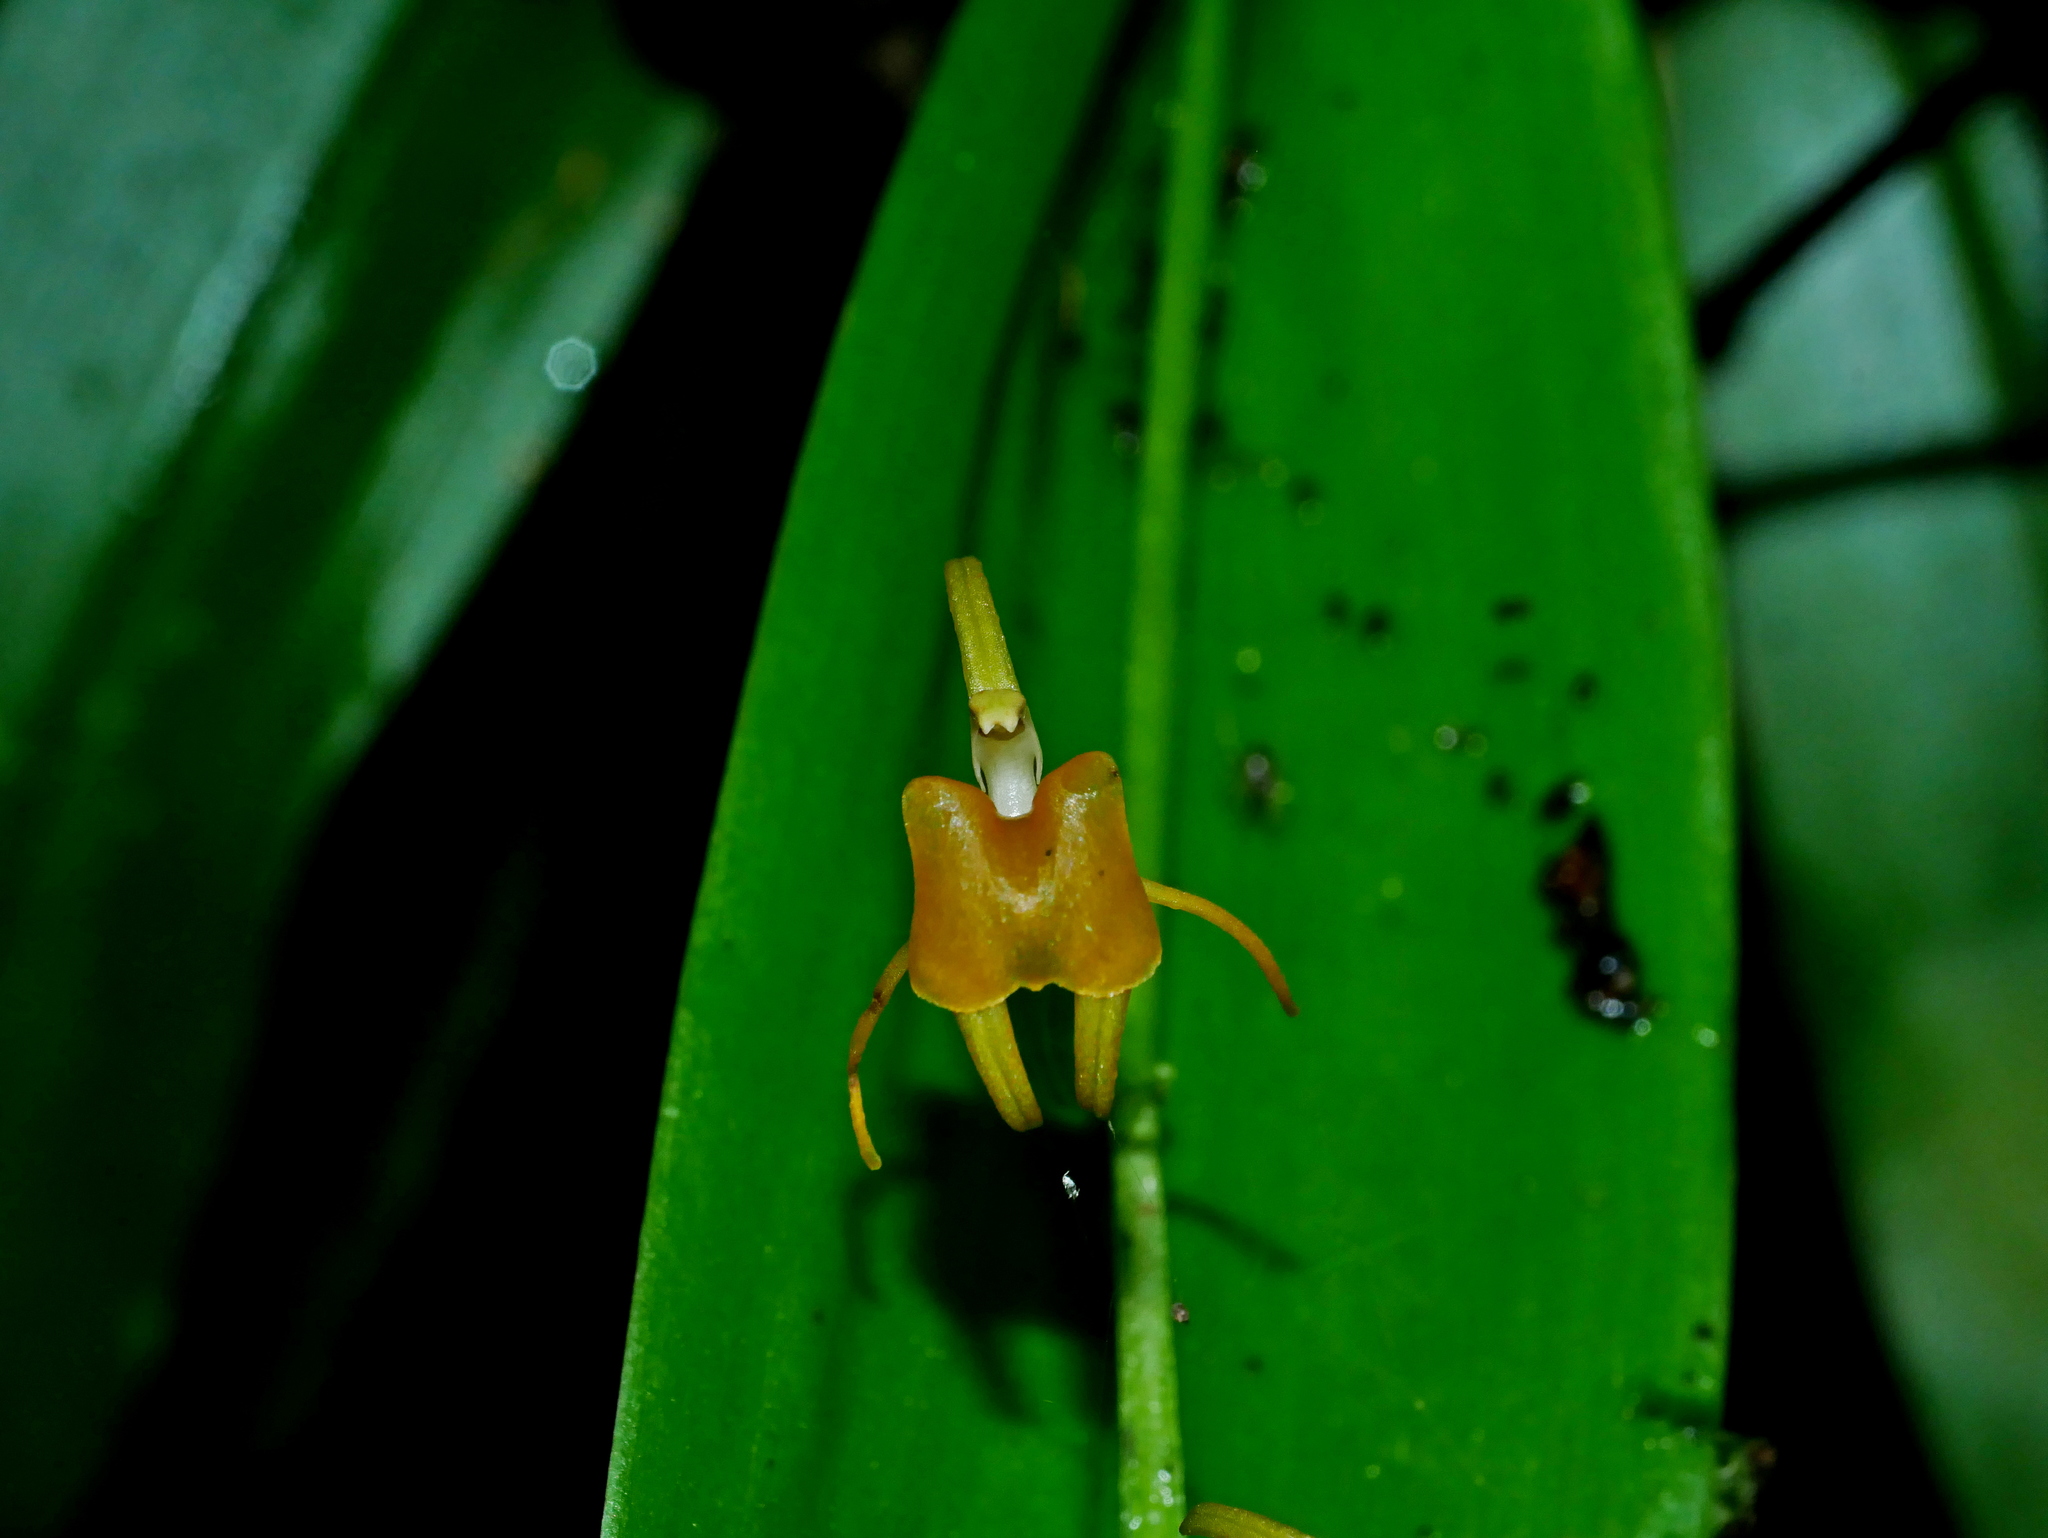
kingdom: Plantae
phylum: Tracheophyta
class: Liliopsida
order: Asparagales
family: Orchidaceae
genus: Liparis
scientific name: Liparis bootanensis
